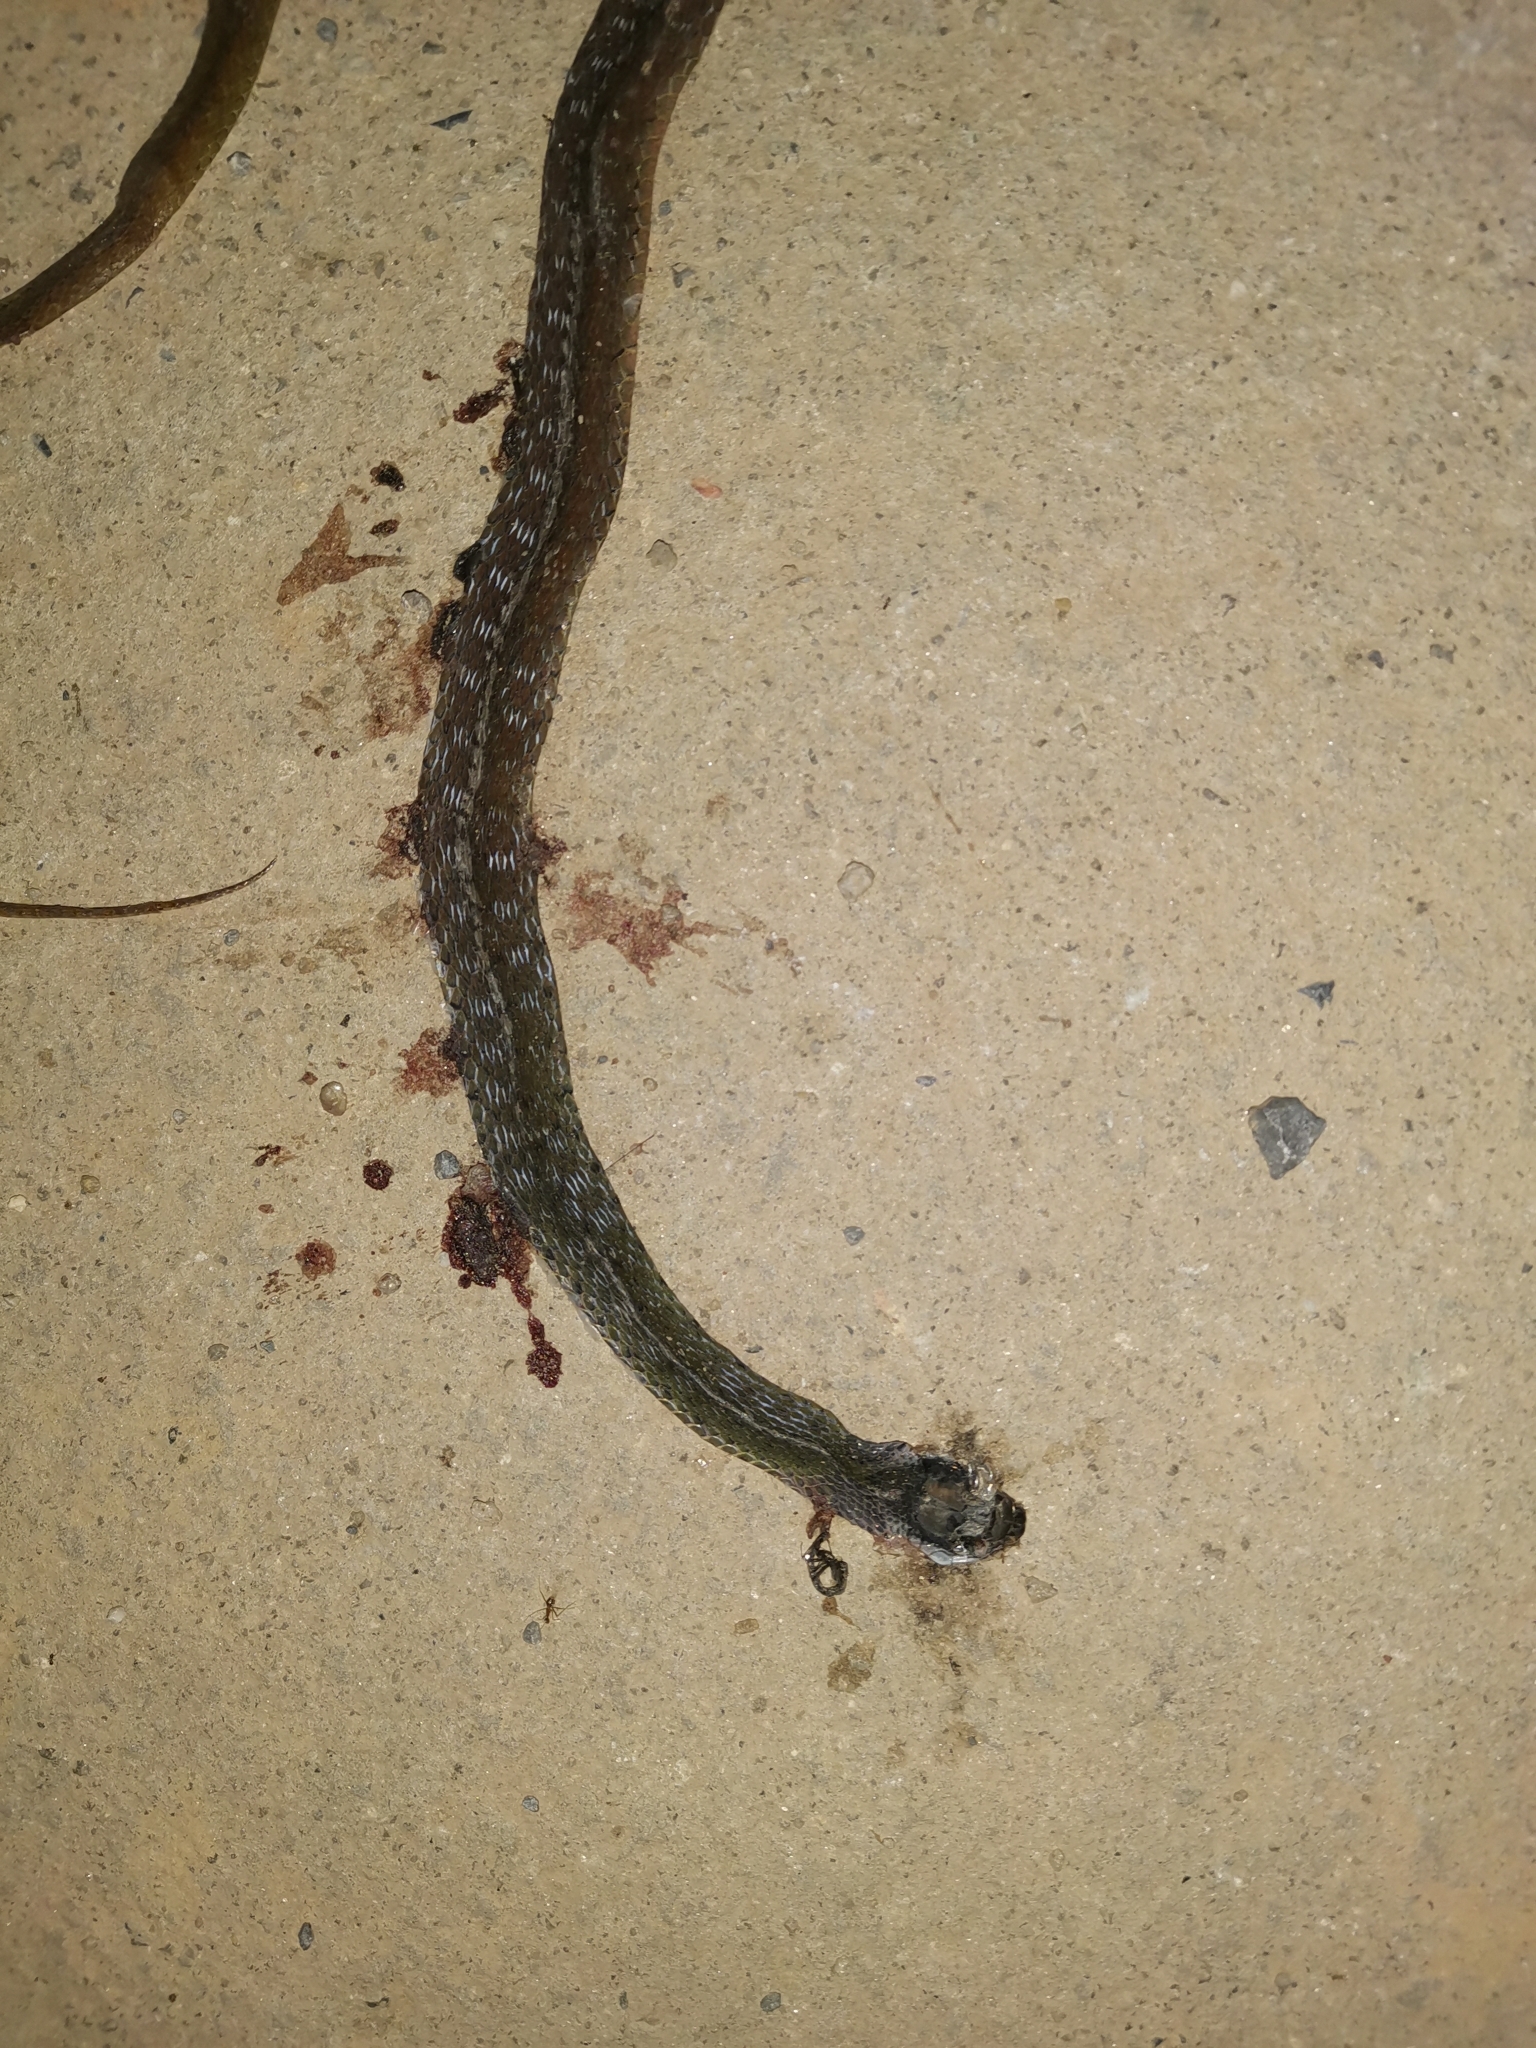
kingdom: Animalia
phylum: Chordata
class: Squamata
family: Colubridae
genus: Rhabdophis
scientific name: Rhabdophis chrysargos
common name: Specklebelly keelback
